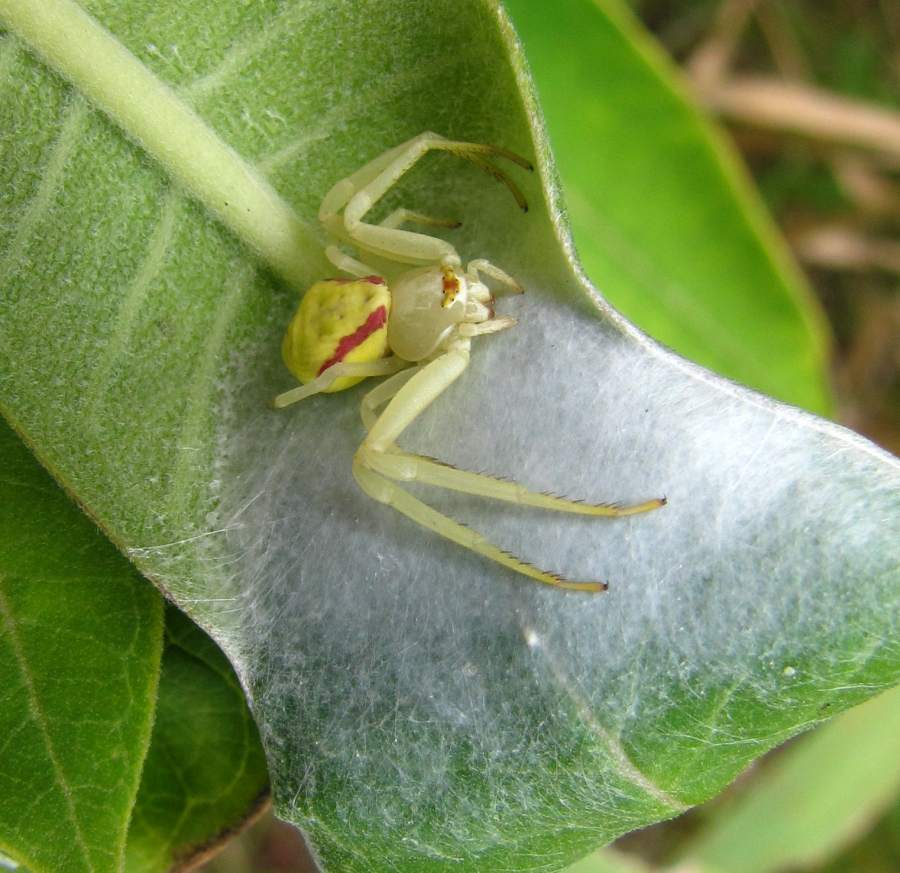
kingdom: Animalia
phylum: Arthropoda
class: Arachnida
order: Araneae
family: Thomisidae
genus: Misumena
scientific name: Misumena vatia
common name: Goldenrod crab spider
